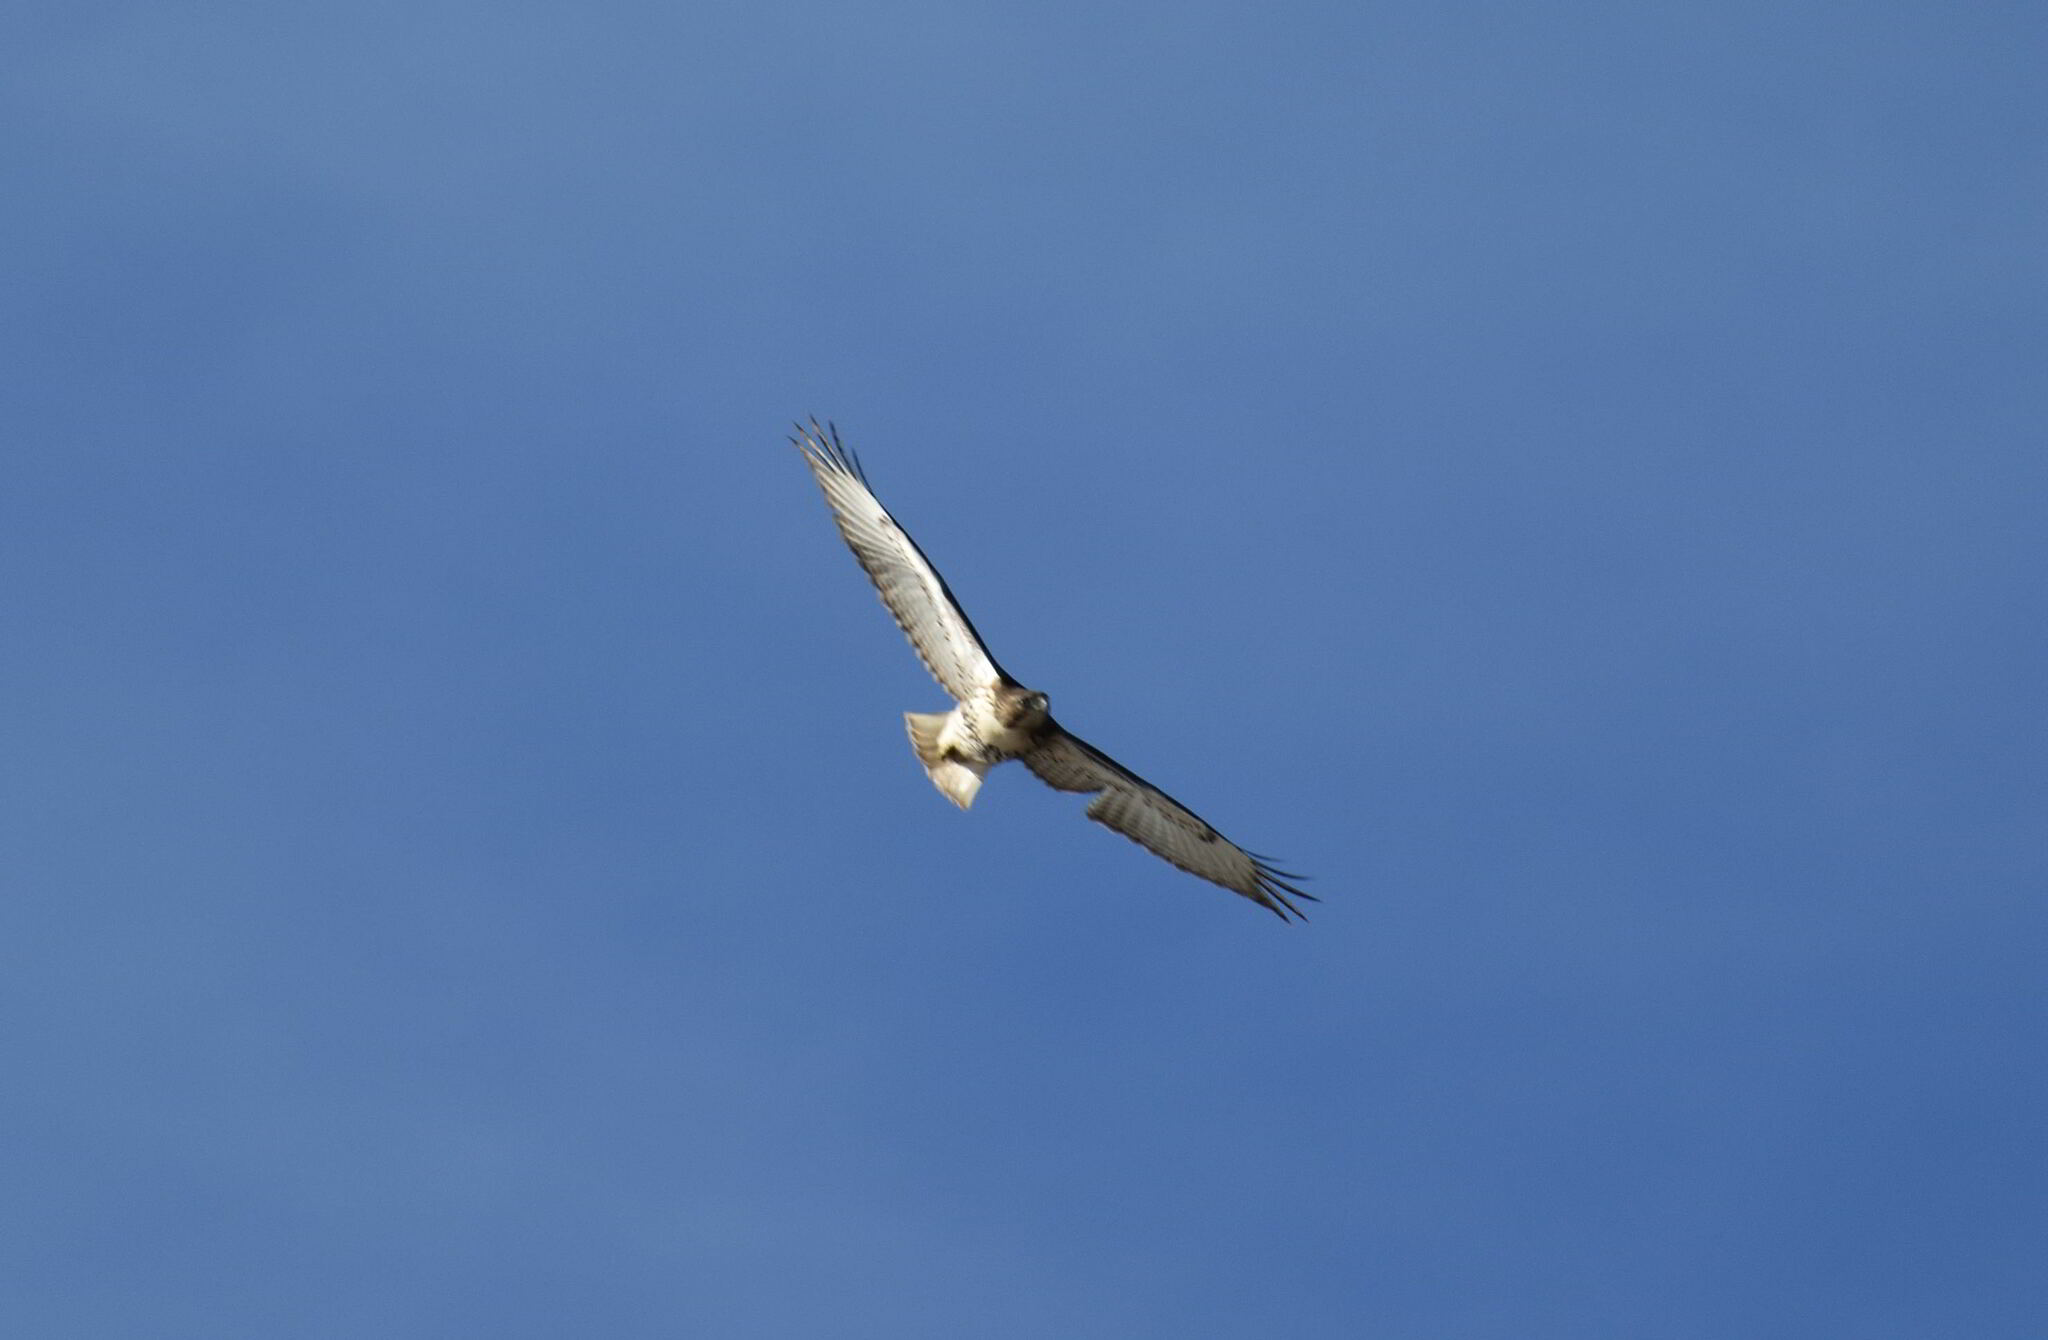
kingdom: Animalia
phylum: Chordata
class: Aves
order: Accipitriformes
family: Accipitridae
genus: Buteo
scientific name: Buteo jamaicensis
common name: Red-tailed hawk
